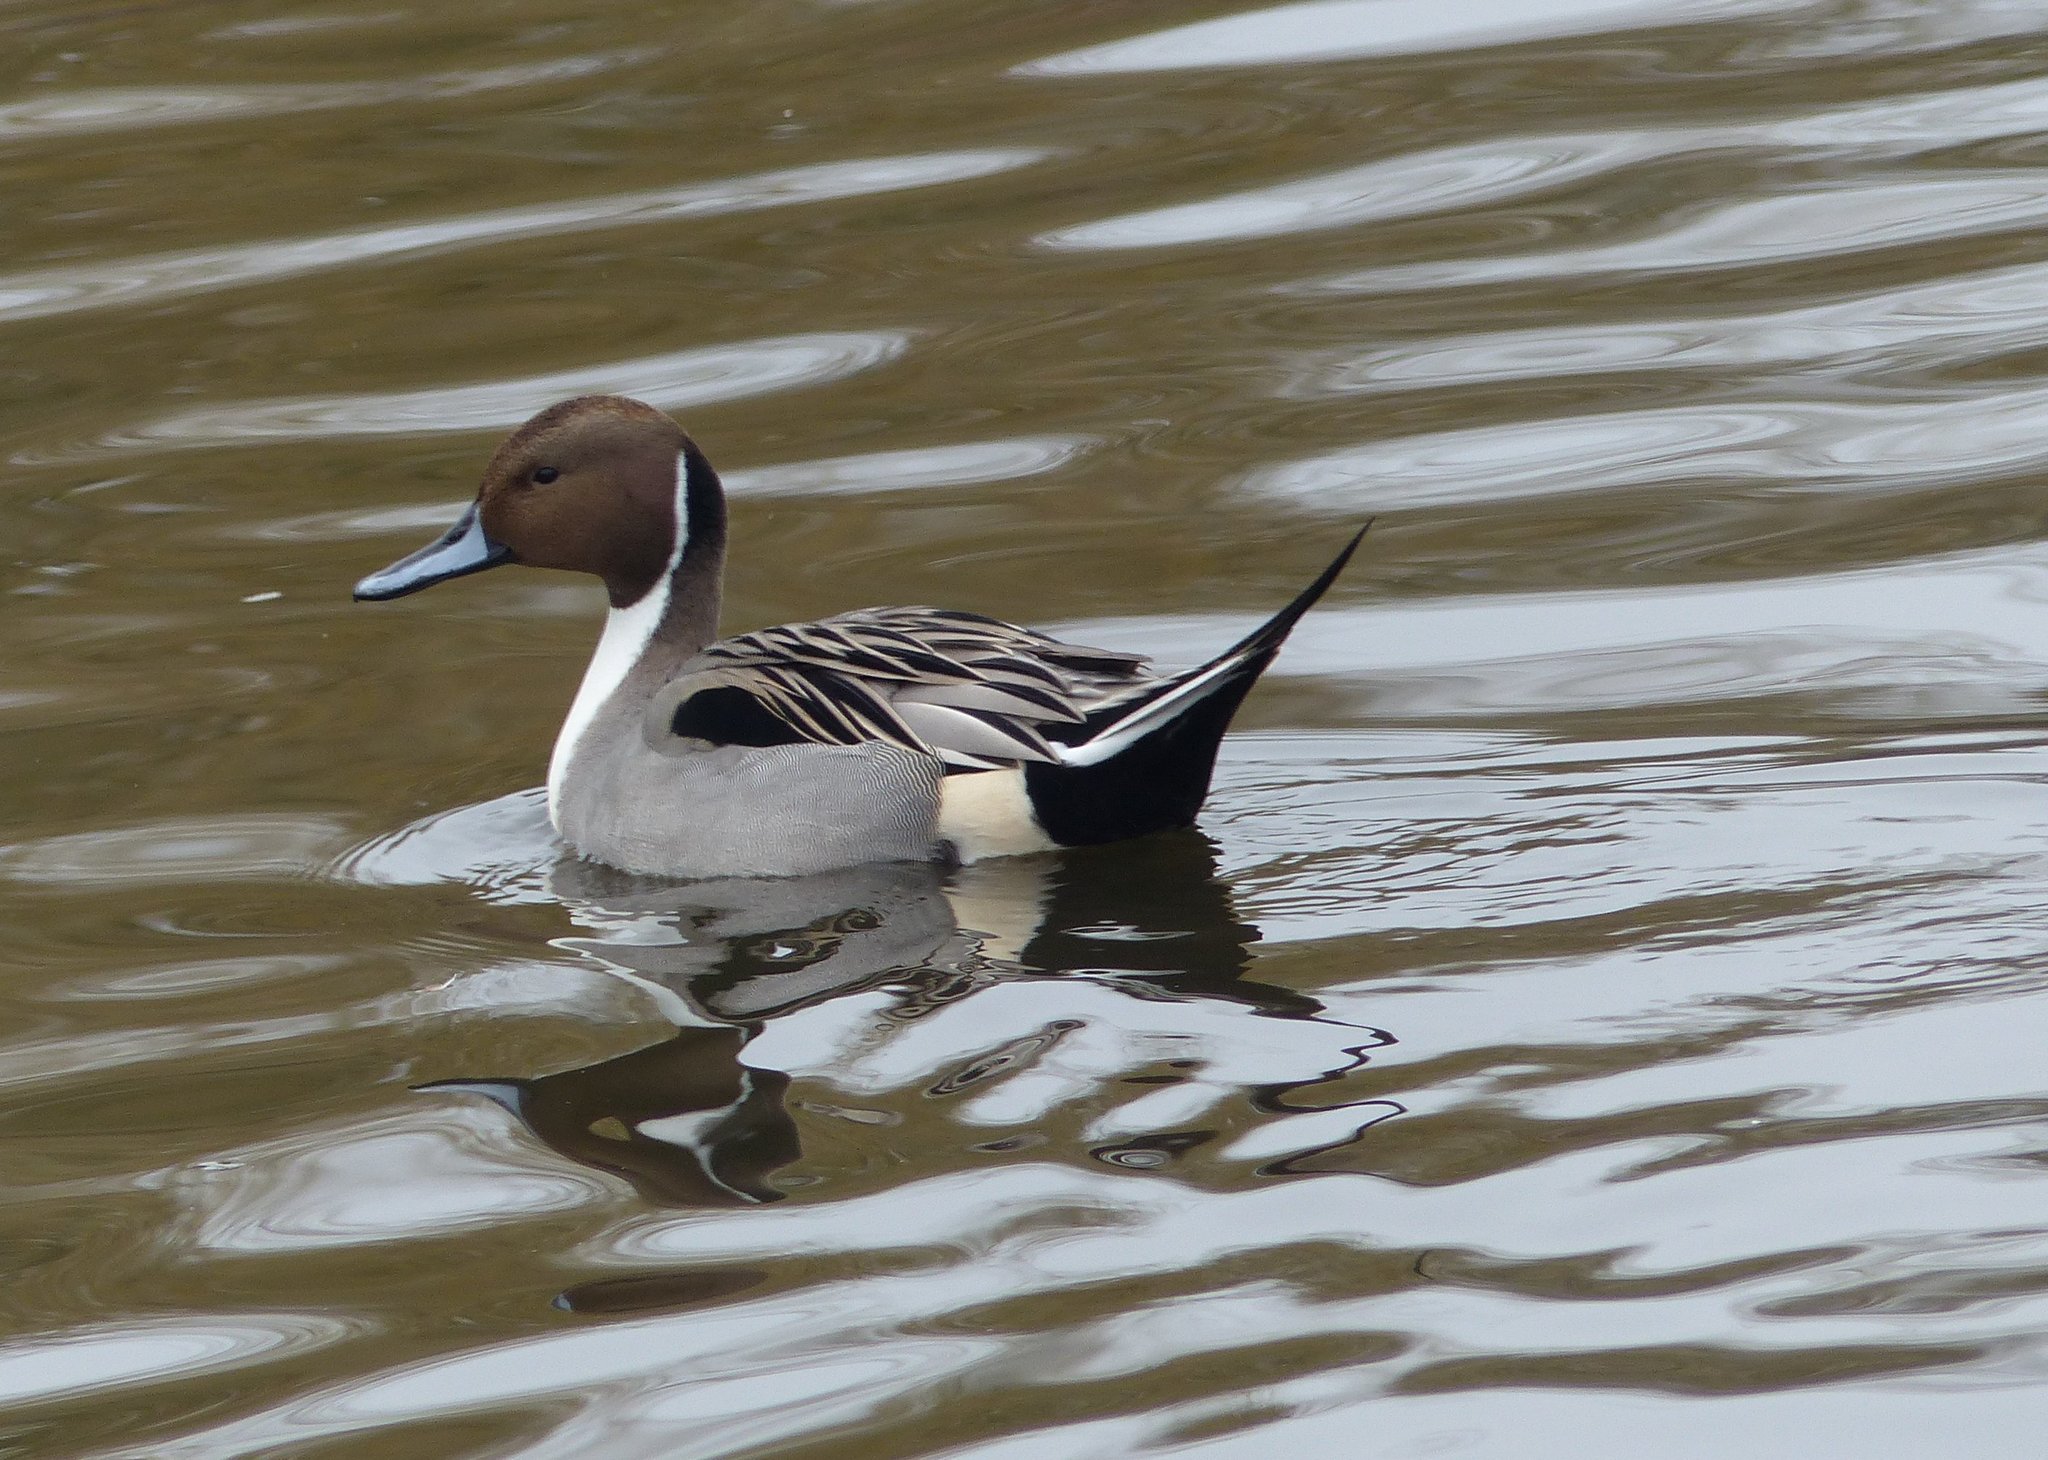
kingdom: Animalia
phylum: Chordata
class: Aves
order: Anseriformes
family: Anatidae
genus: Anas
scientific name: Anas acuta
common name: Northern pintail
